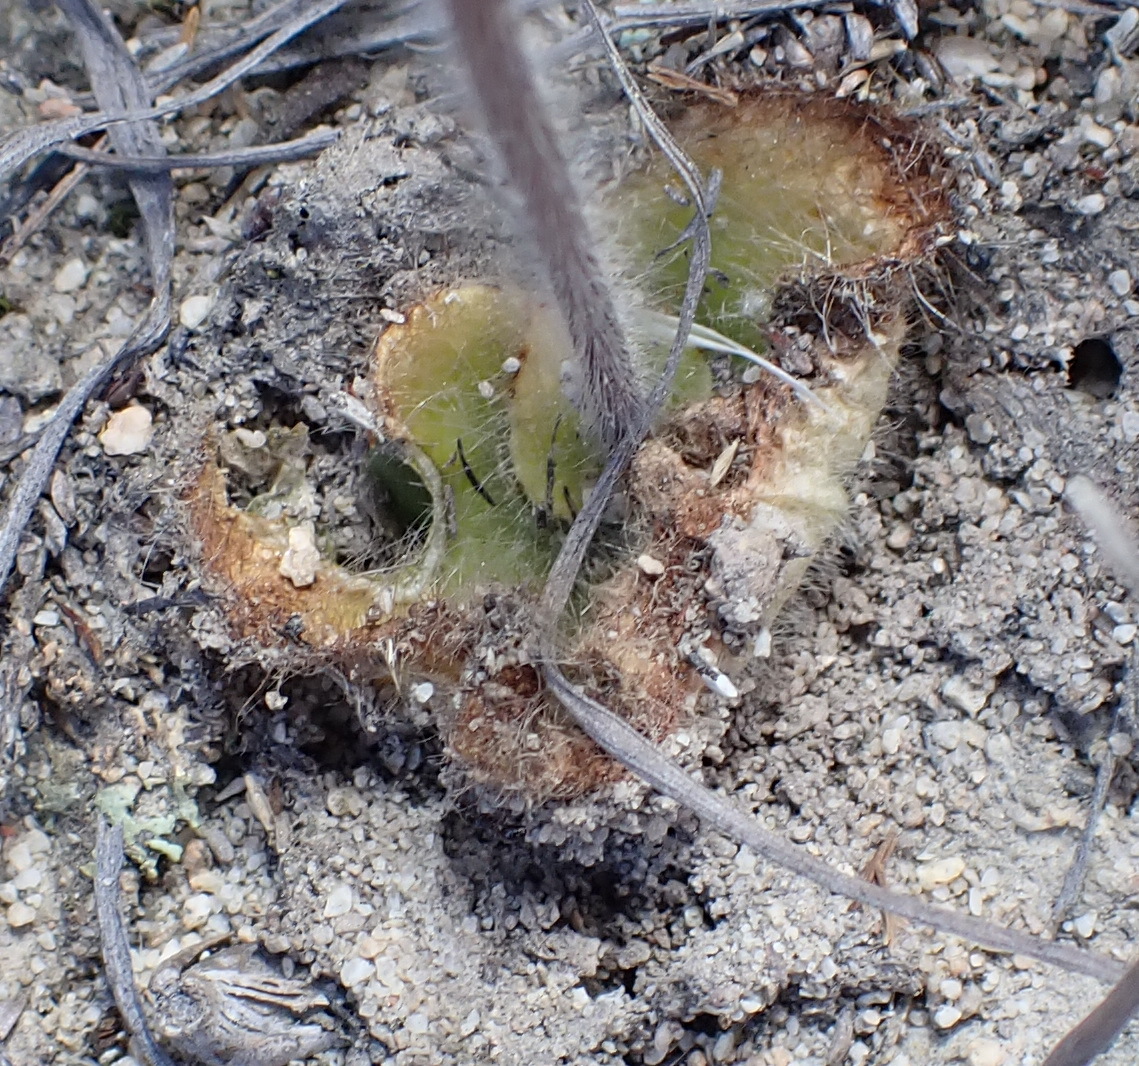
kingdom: Plantae
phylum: Tracheophyta
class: Liliopsida
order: Asparagales
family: Orchidaceae
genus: Holothrix
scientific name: Holothrix villosa
